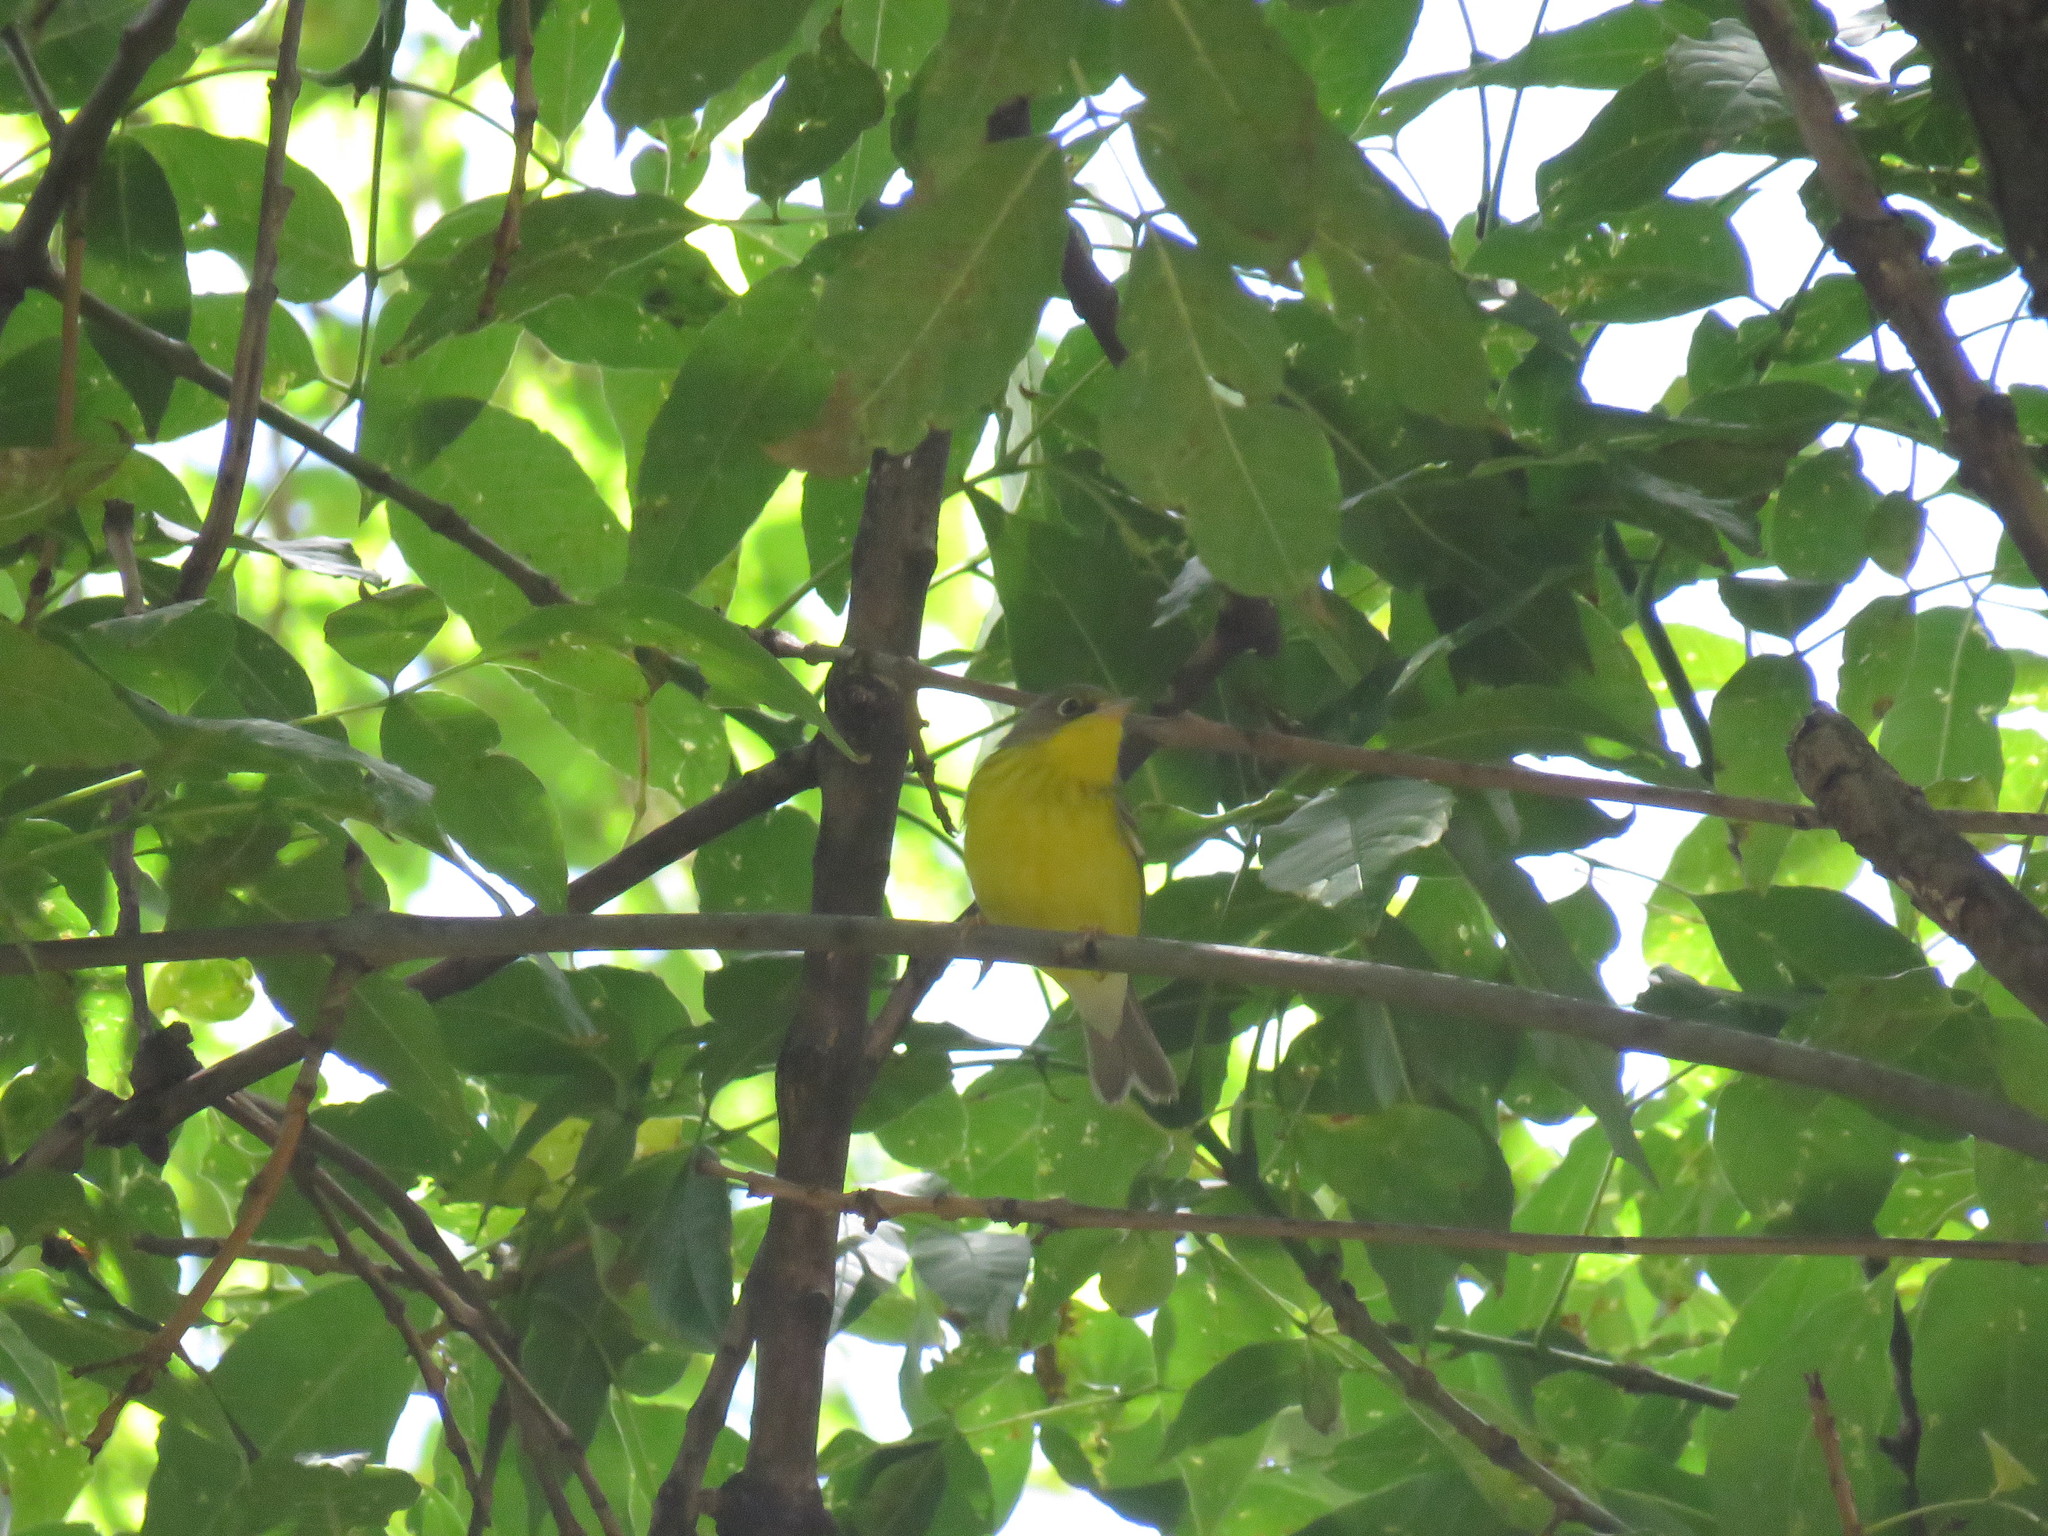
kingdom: Animalia
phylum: Chordata
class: Aves
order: Passeriformes
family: Parulidae
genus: Cardellina
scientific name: Cardellina canadensis
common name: Canada warbler
